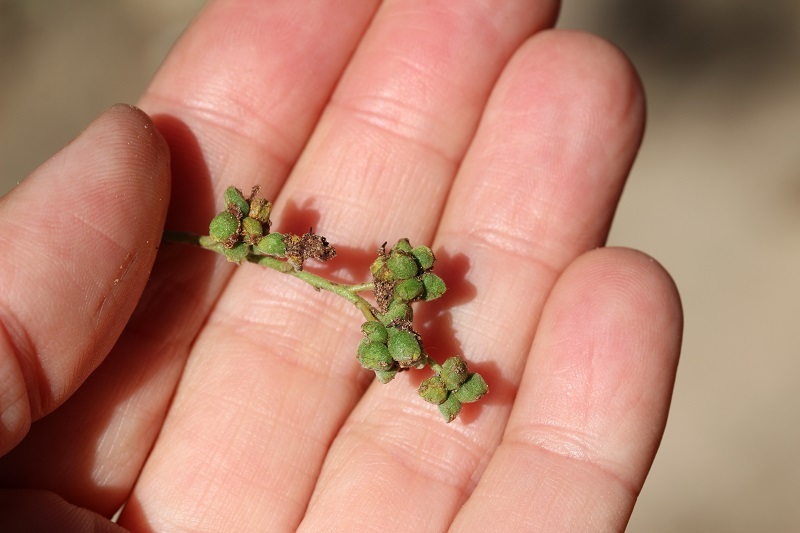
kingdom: Animalia
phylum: Arthropoda
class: Insecta
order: Diptera
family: Cecidomyiidae
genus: Dasineura
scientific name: Dasineura rubiformis
